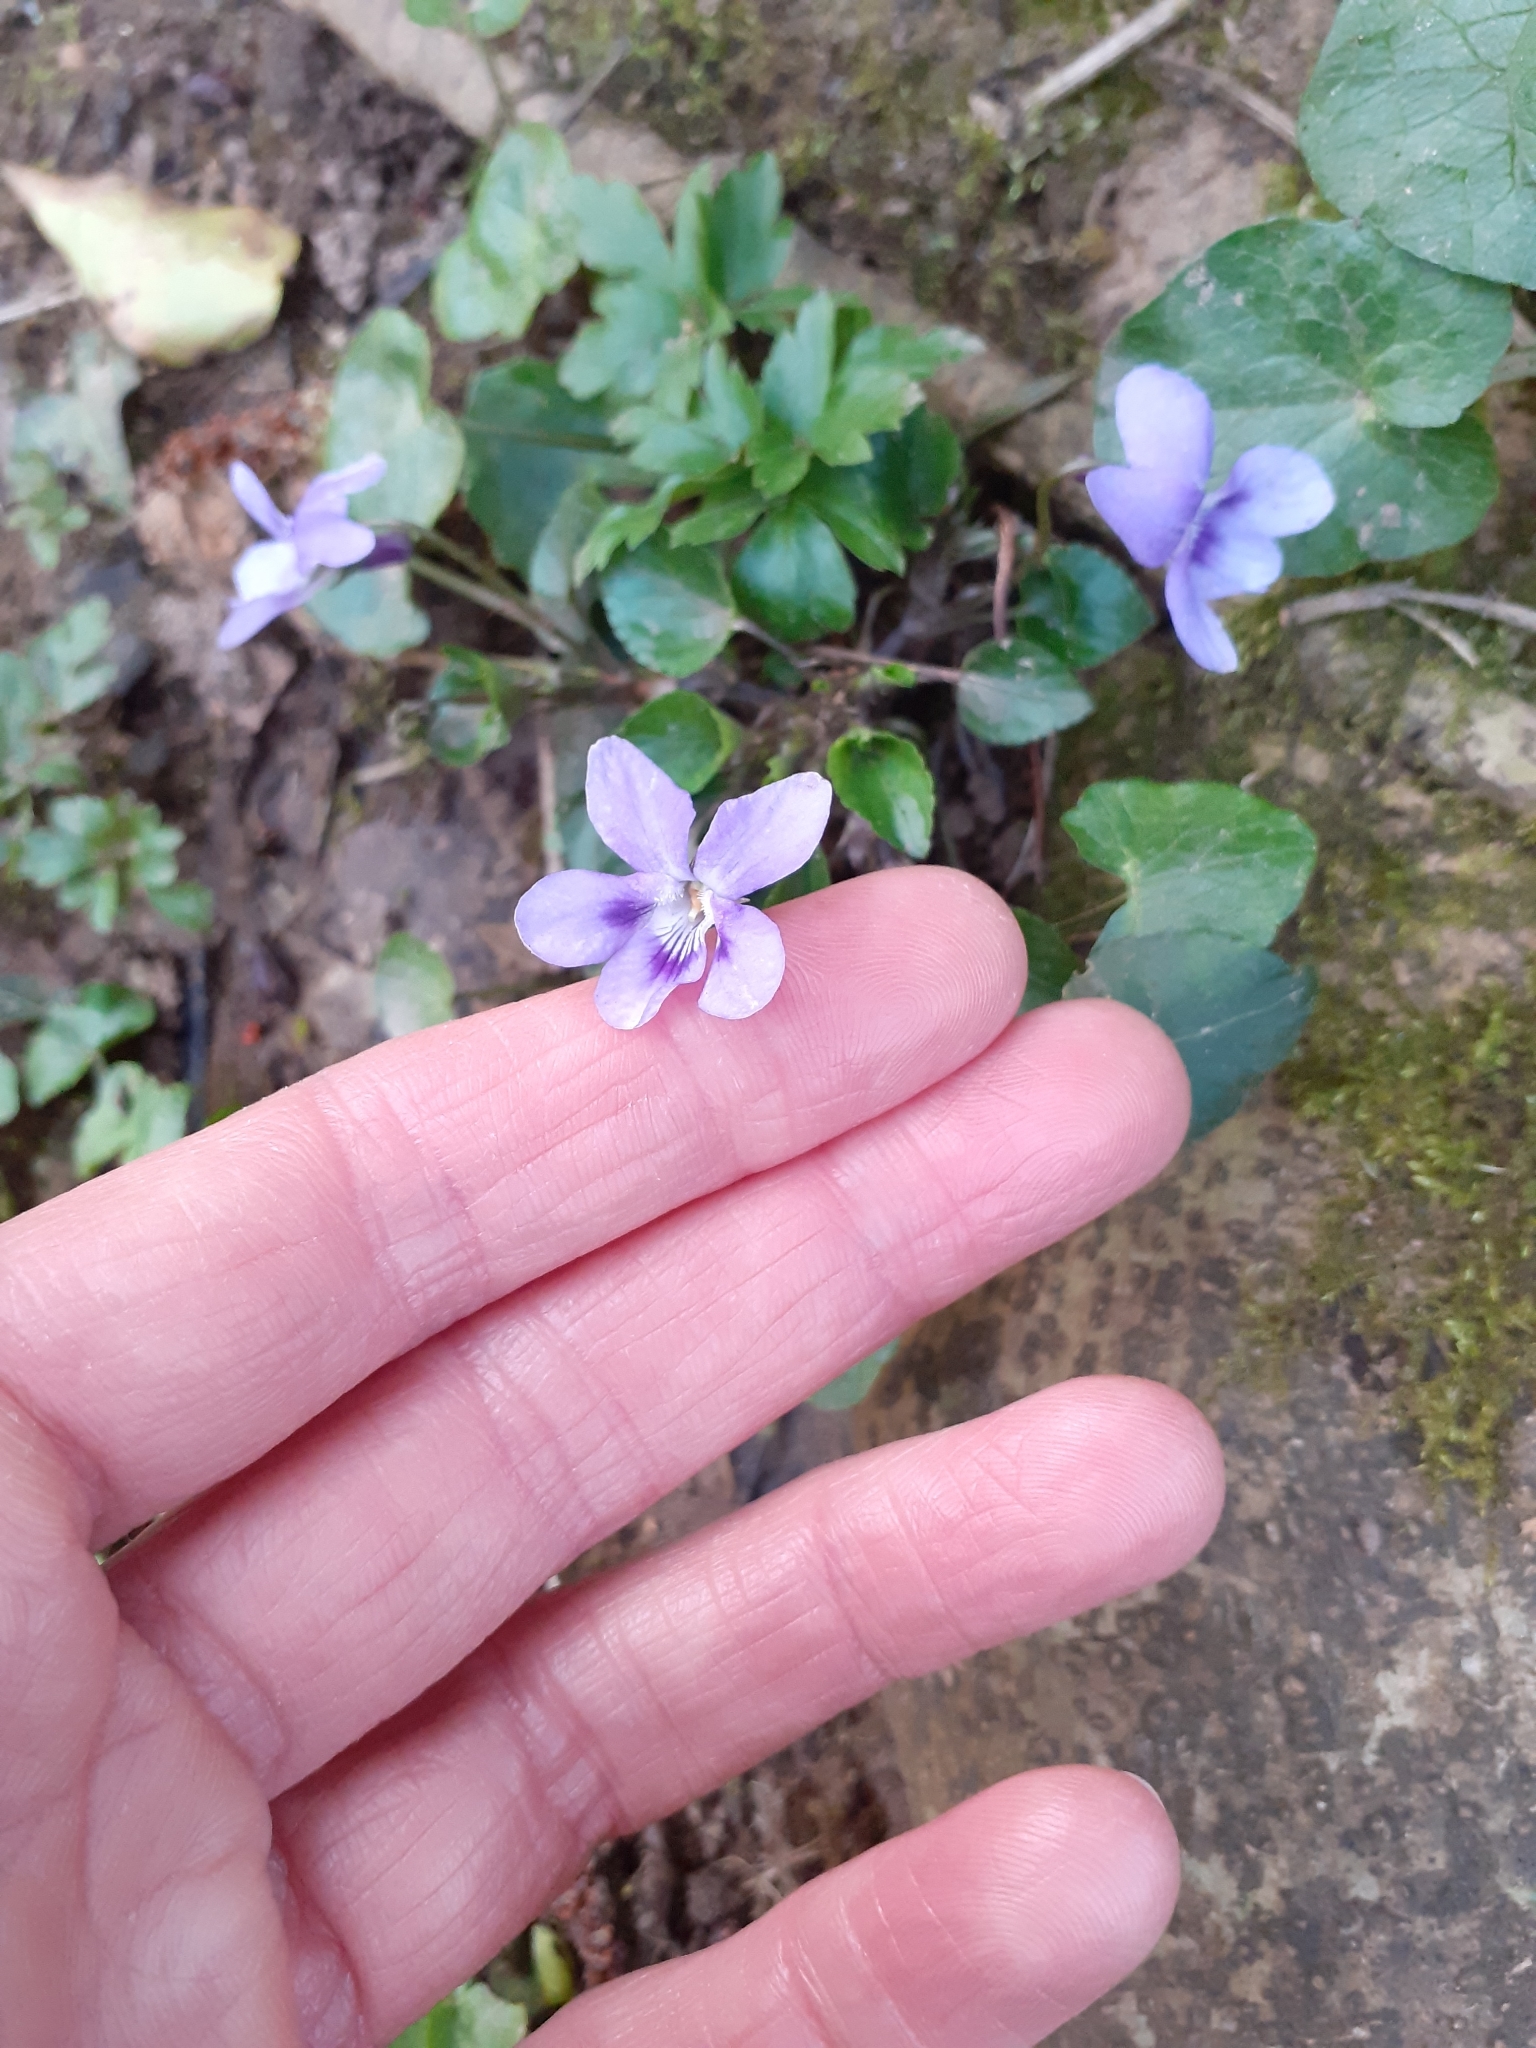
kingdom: Plantae
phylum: Tracheophyta
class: Magnoliopsida
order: Malpighiales
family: Violaceae
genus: Viola
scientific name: Viola reichenbachiana
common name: Early dog-violet
